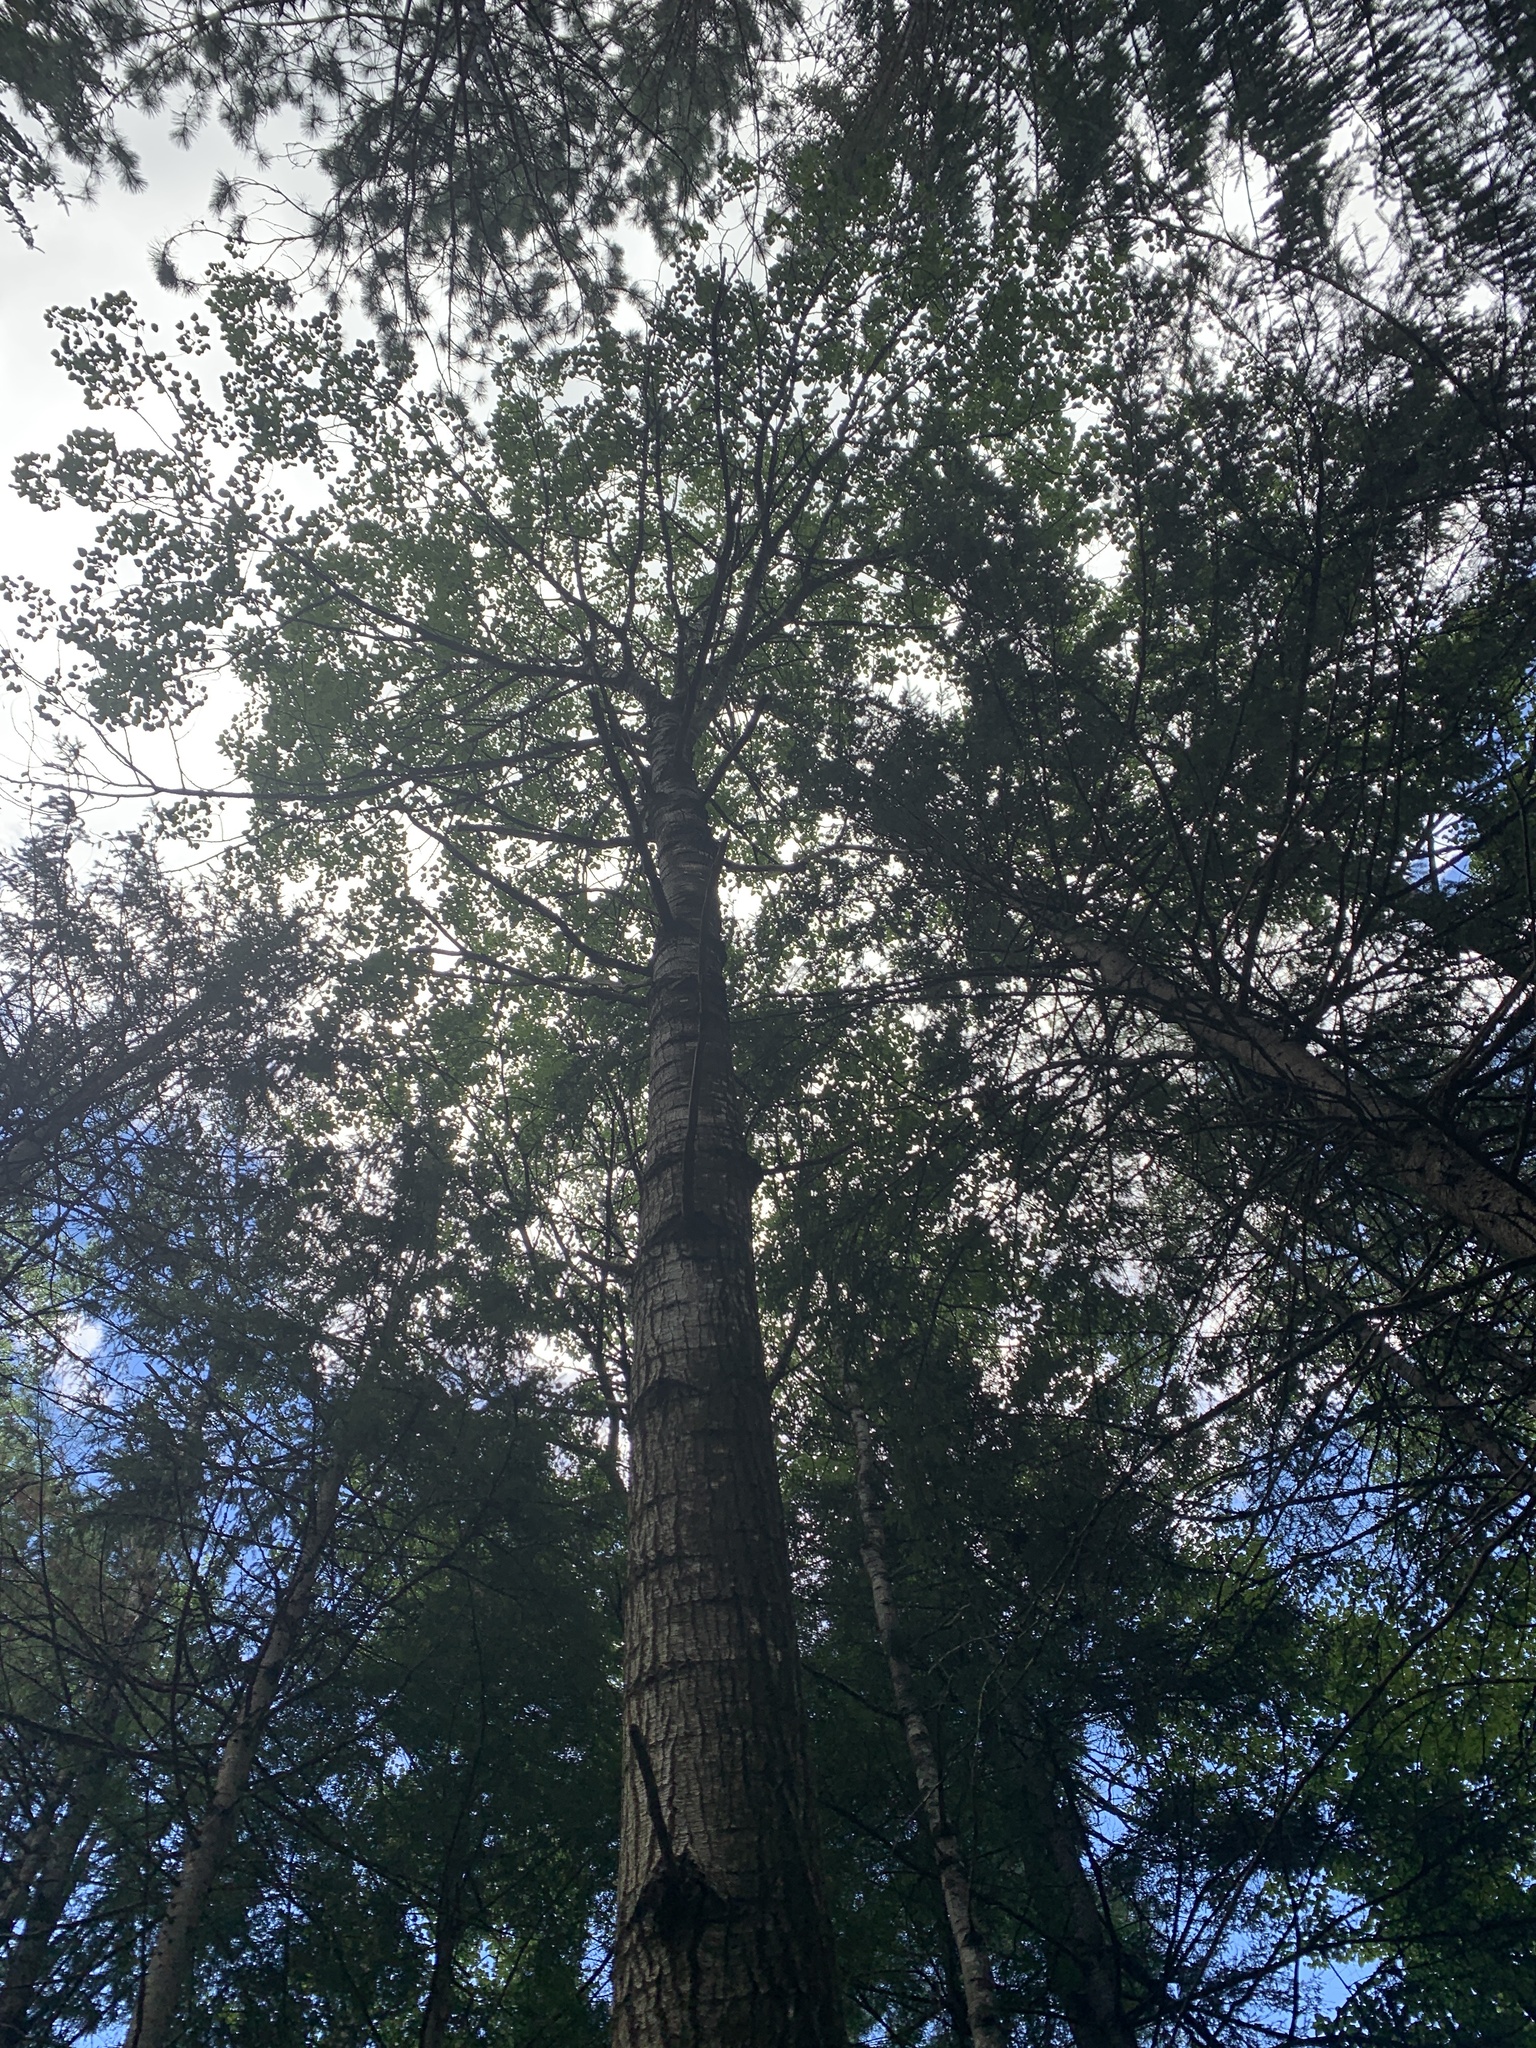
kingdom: Plantae
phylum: Tracheophyta
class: Magnoliopsida
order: Malpighiales
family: Salicaceae
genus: Populus
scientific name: Populus grandidentata
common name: Bigtooth aspen
